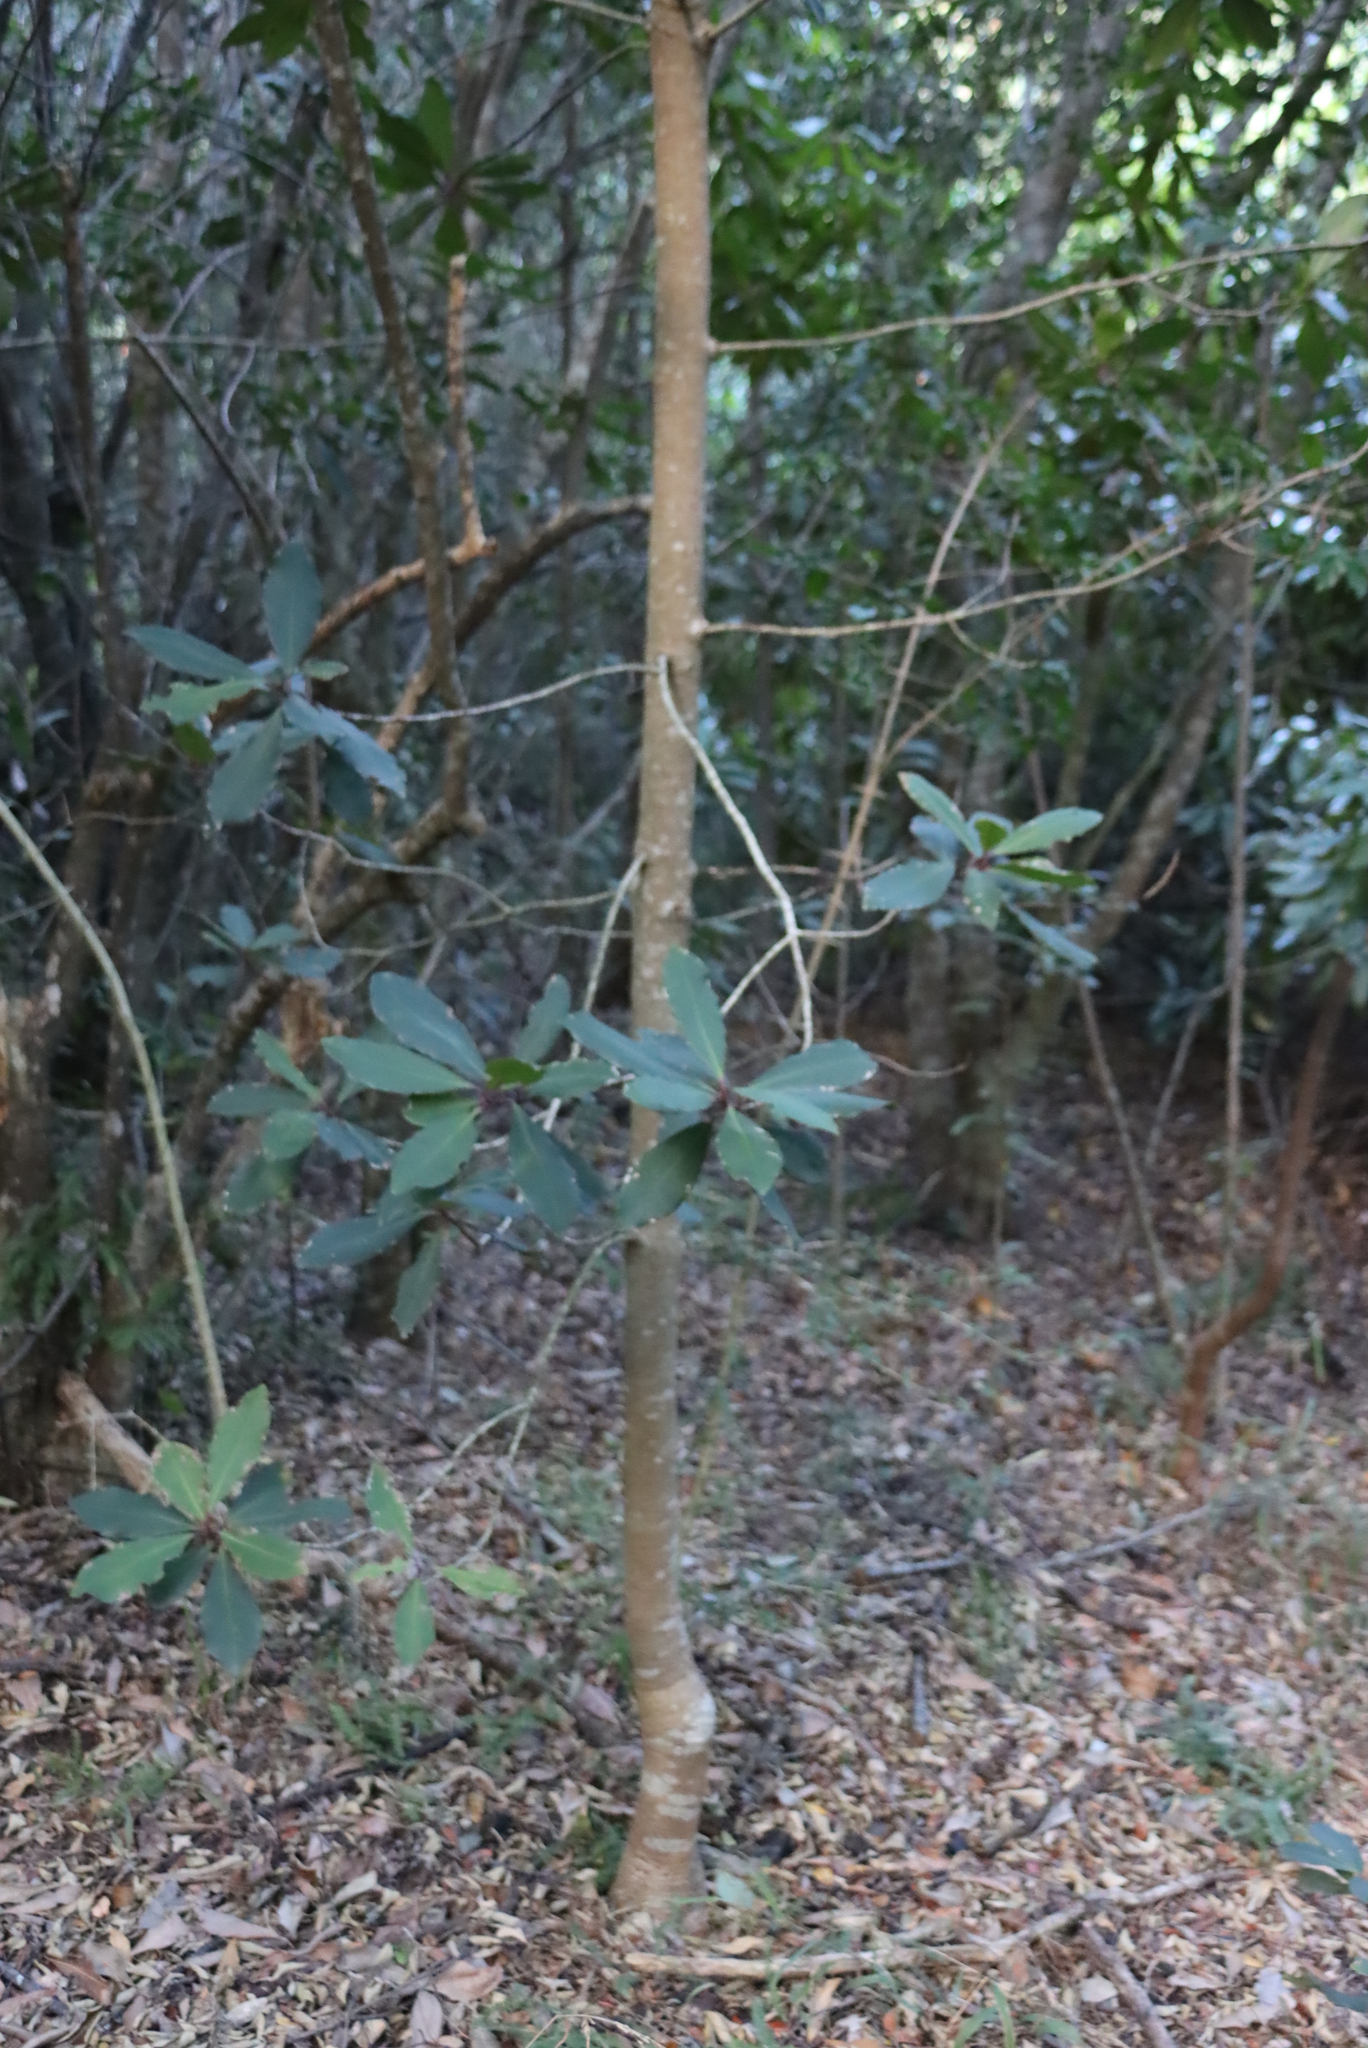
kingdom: Plantae
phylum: Tracheophyta
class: Magnoliopsida
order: Ericales
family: Primulaceae
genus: Myrsine
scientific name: Myrsine melanophloeos
